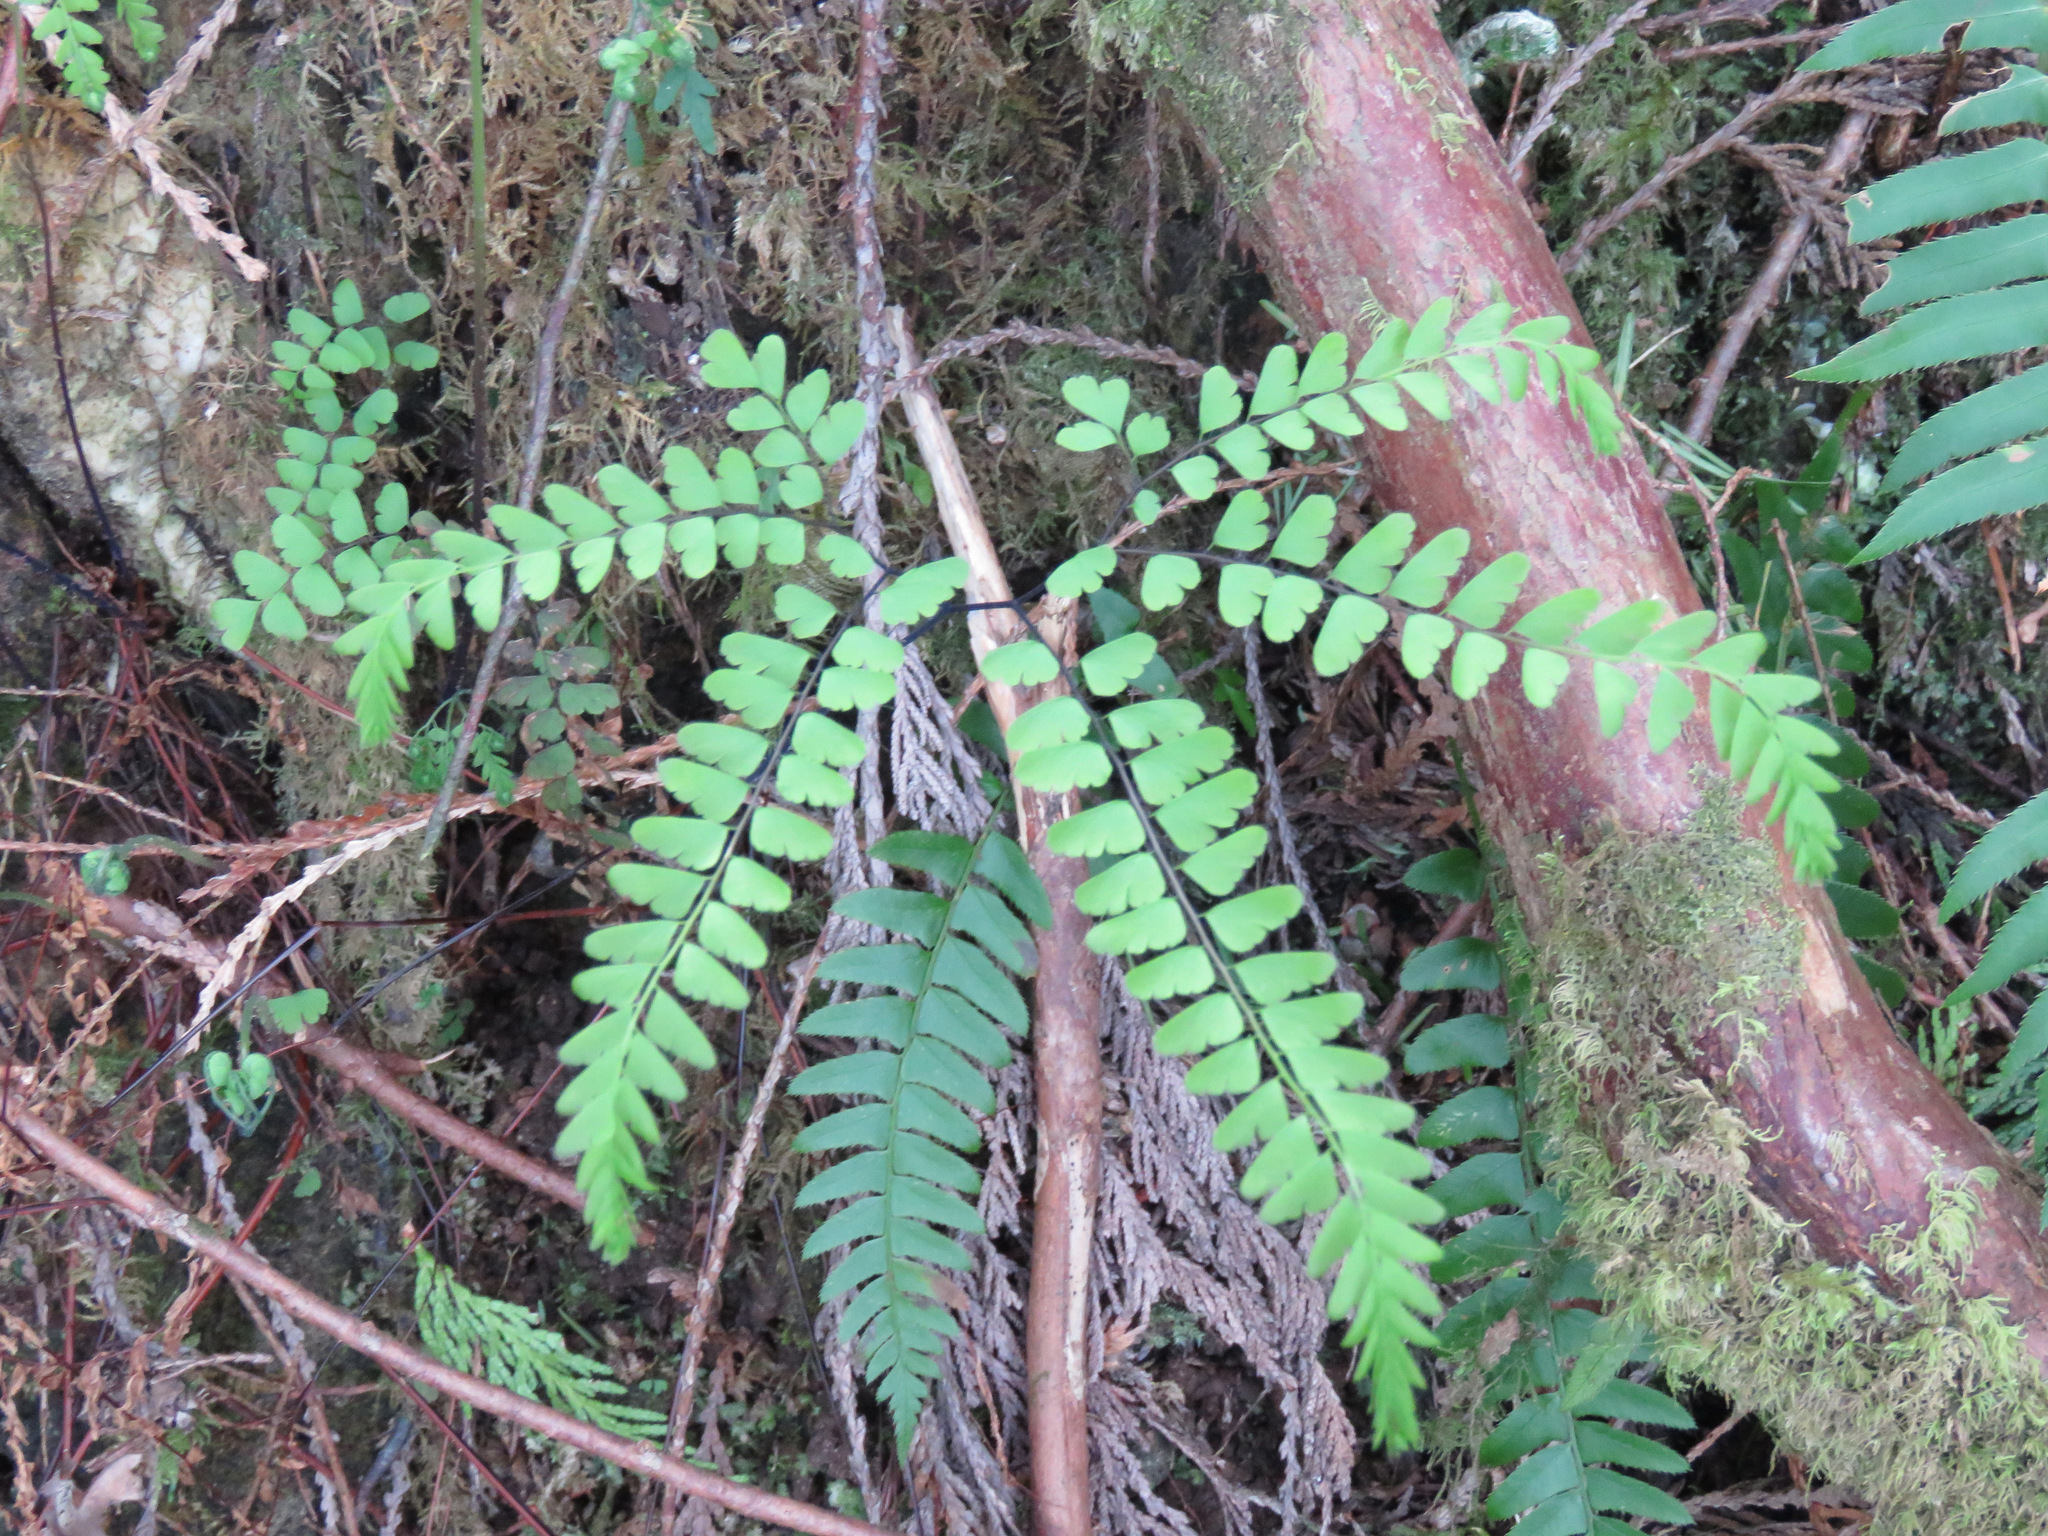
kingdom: Plantae
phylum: Tracheophyta
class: Polypodiopsida
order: Polypodiales
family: Pteridaceae
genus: Adiantum
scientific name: Adiantum aleuticum
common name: Aleutian maidenhair fern
